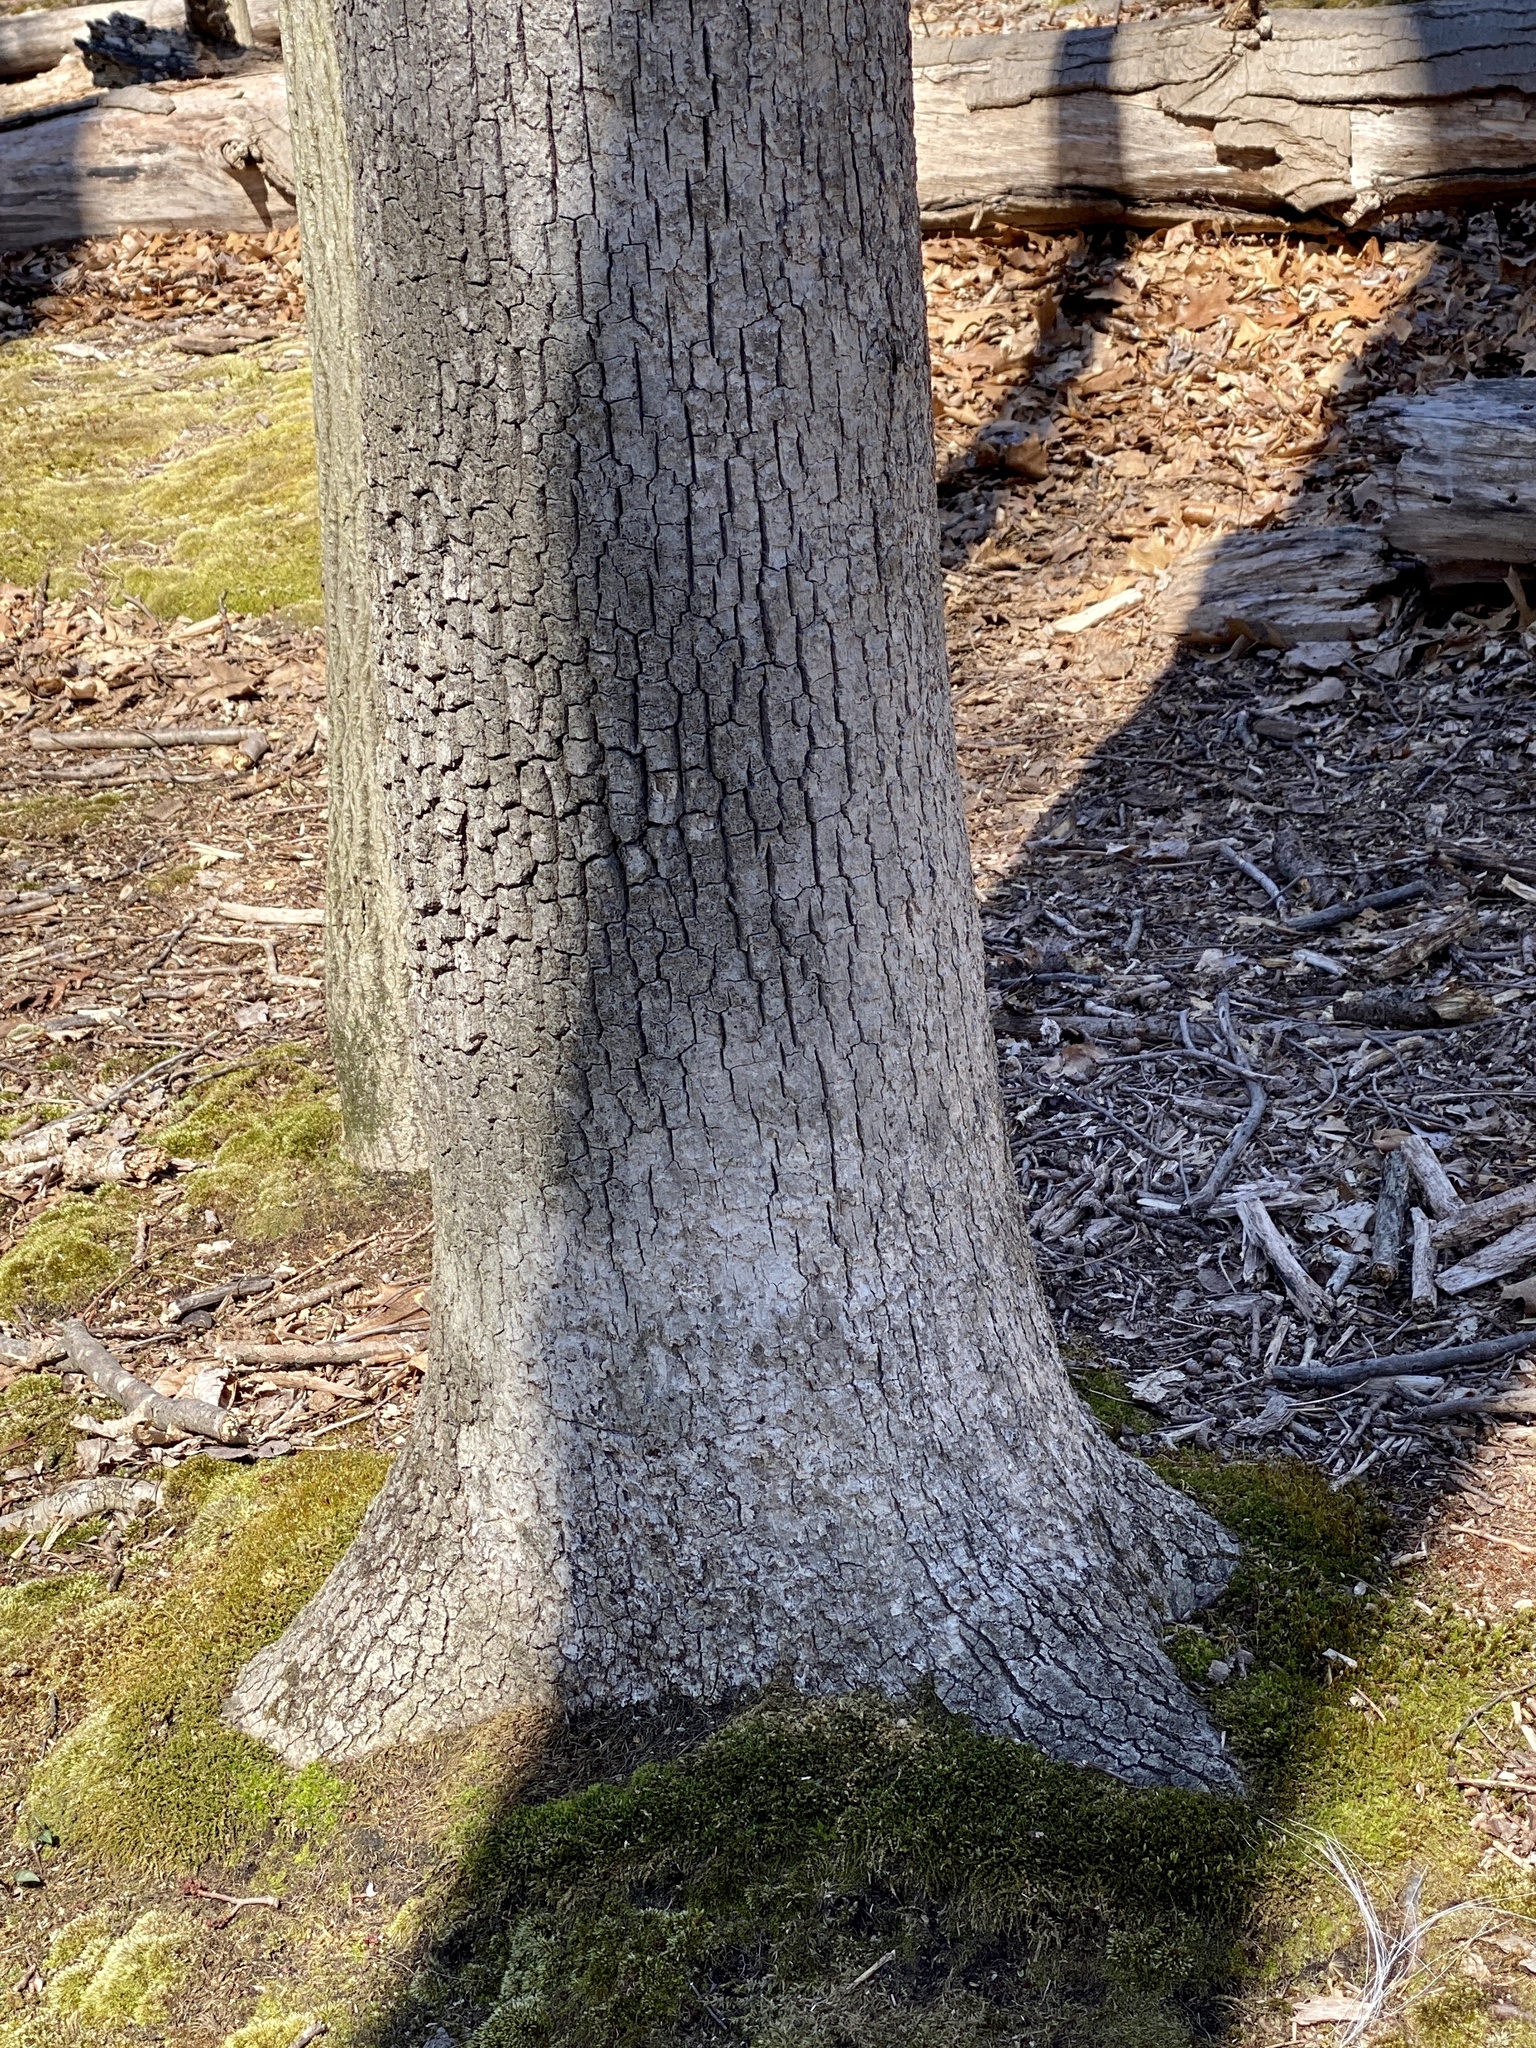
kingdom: Fungi
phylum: Basidiomycota
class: Agaricomycetes
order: Russulales
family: Stereaceae
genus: Acanthophysium
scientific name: Acanthophysium oakesii
